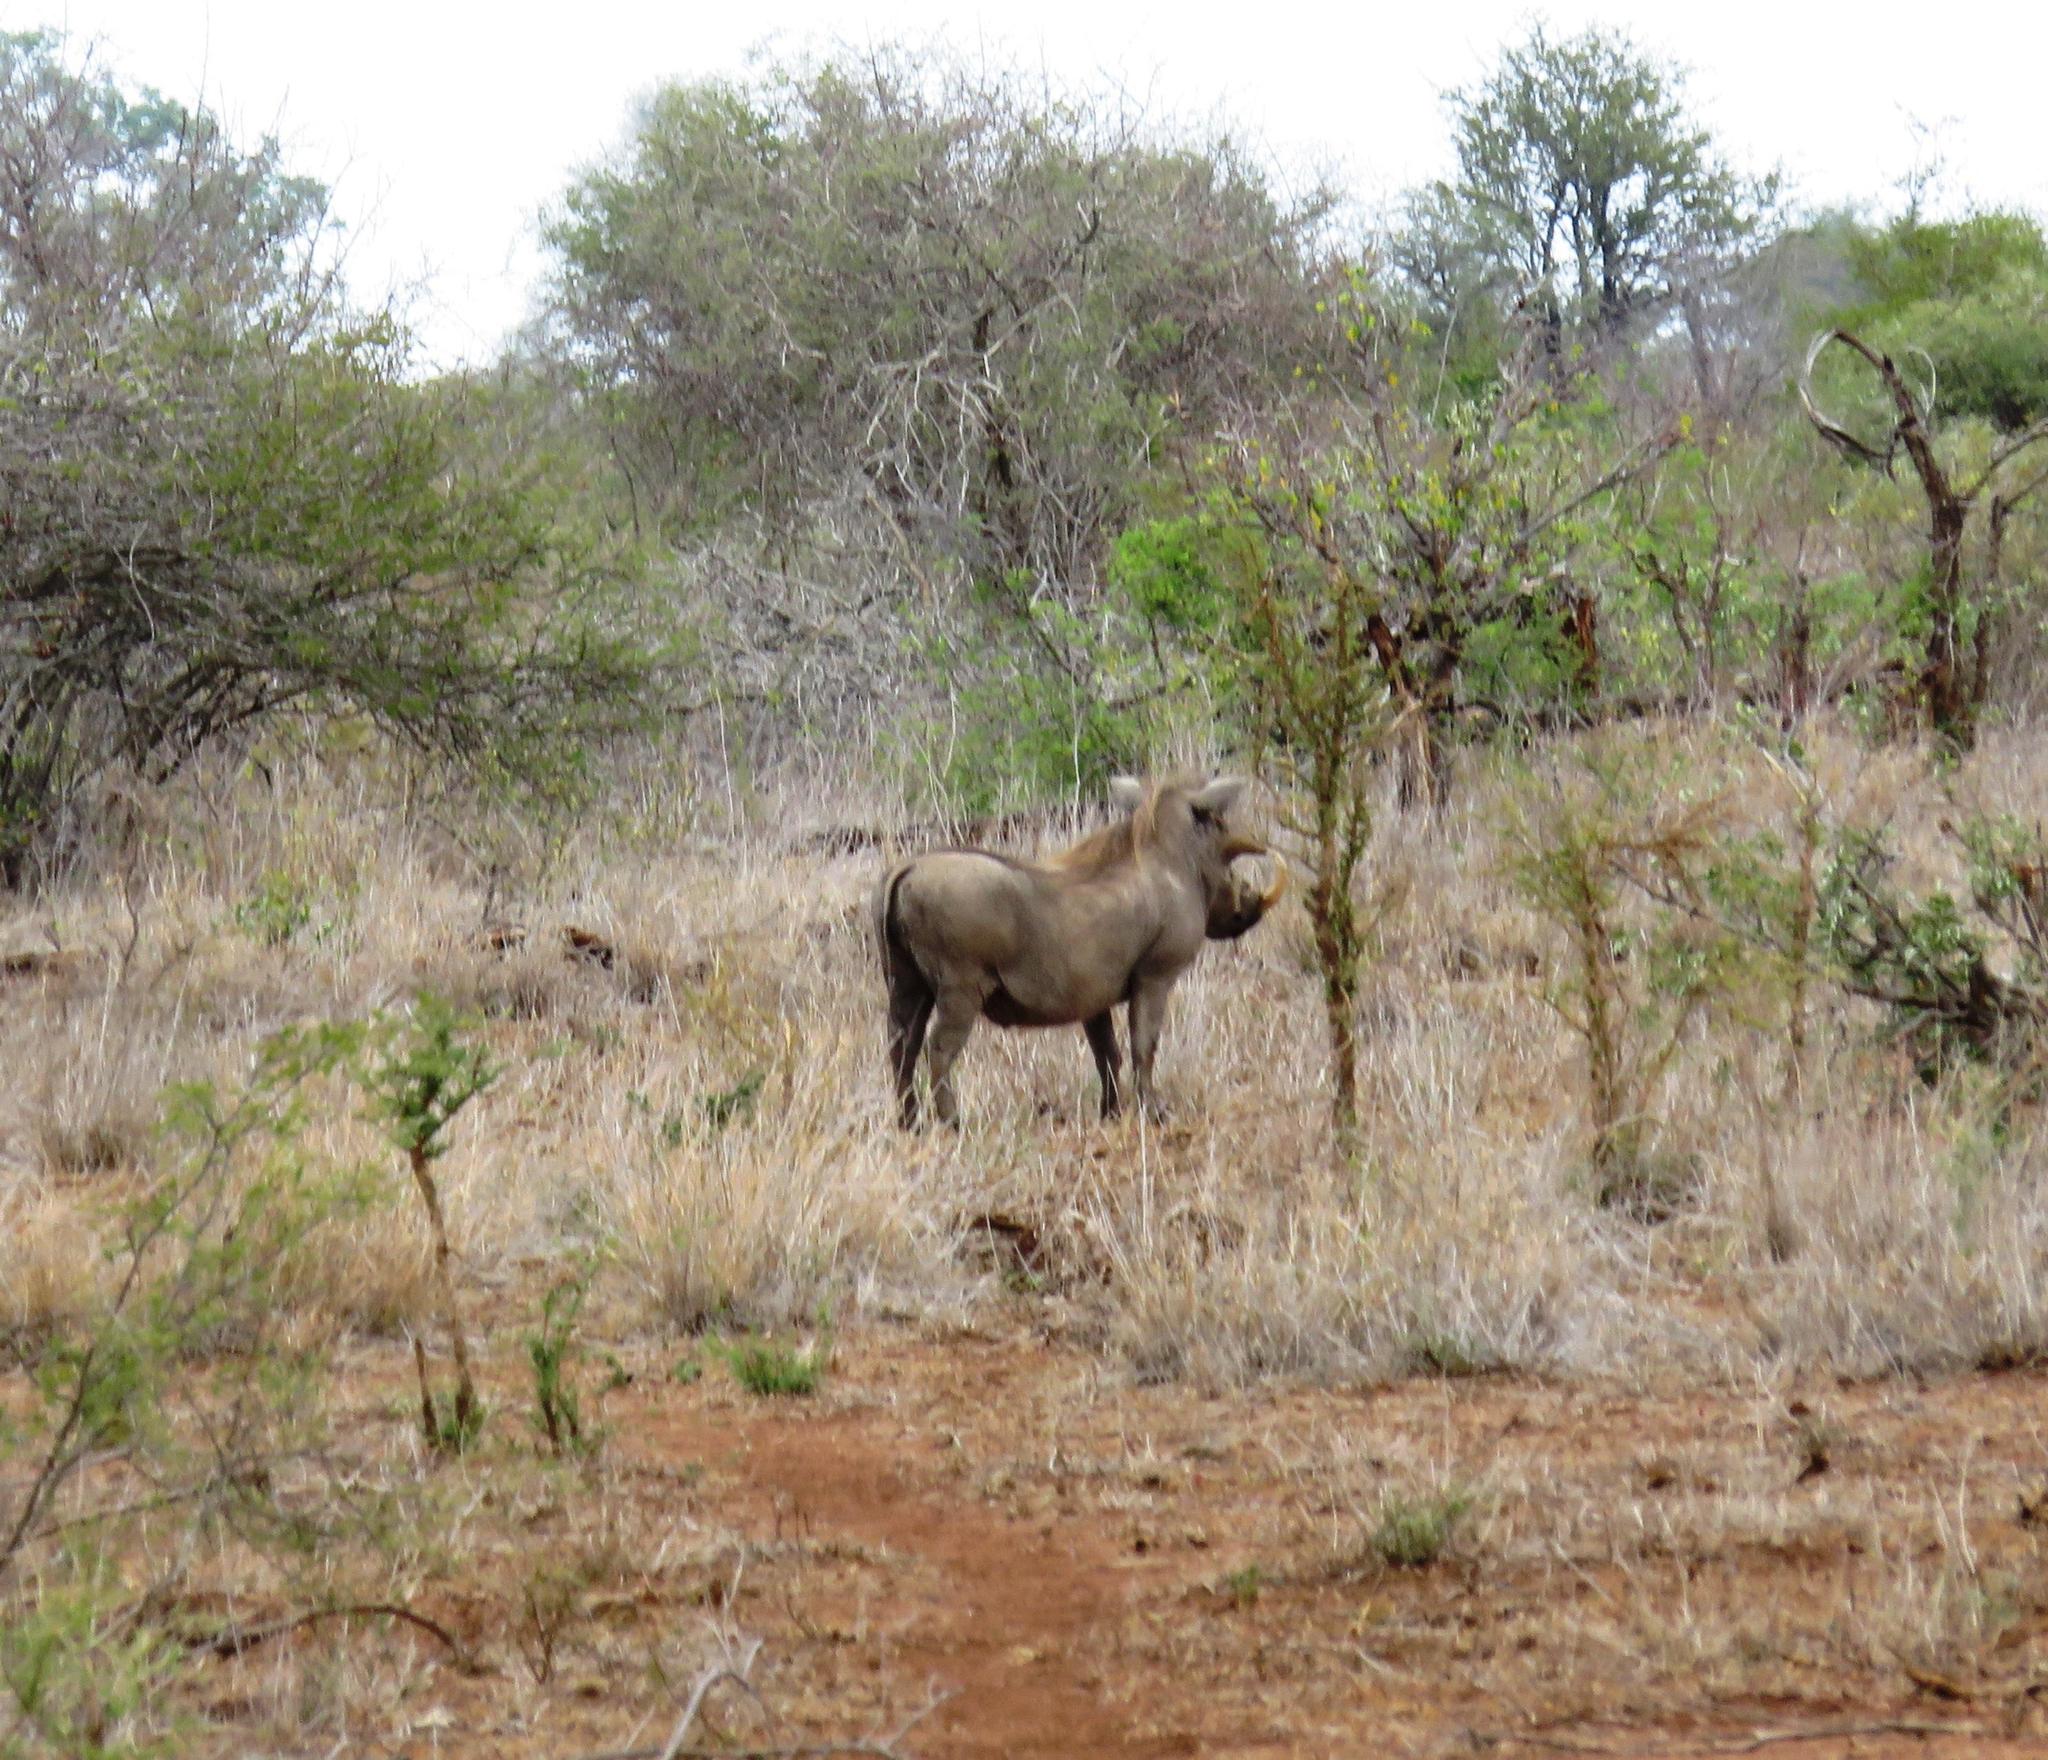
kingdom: Animalia
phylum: Chordata
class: Mammalia
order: Artiodactyla
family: Suidae
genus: Phacochoerus
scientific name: Phacochoerus africanus
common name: Common warthog
